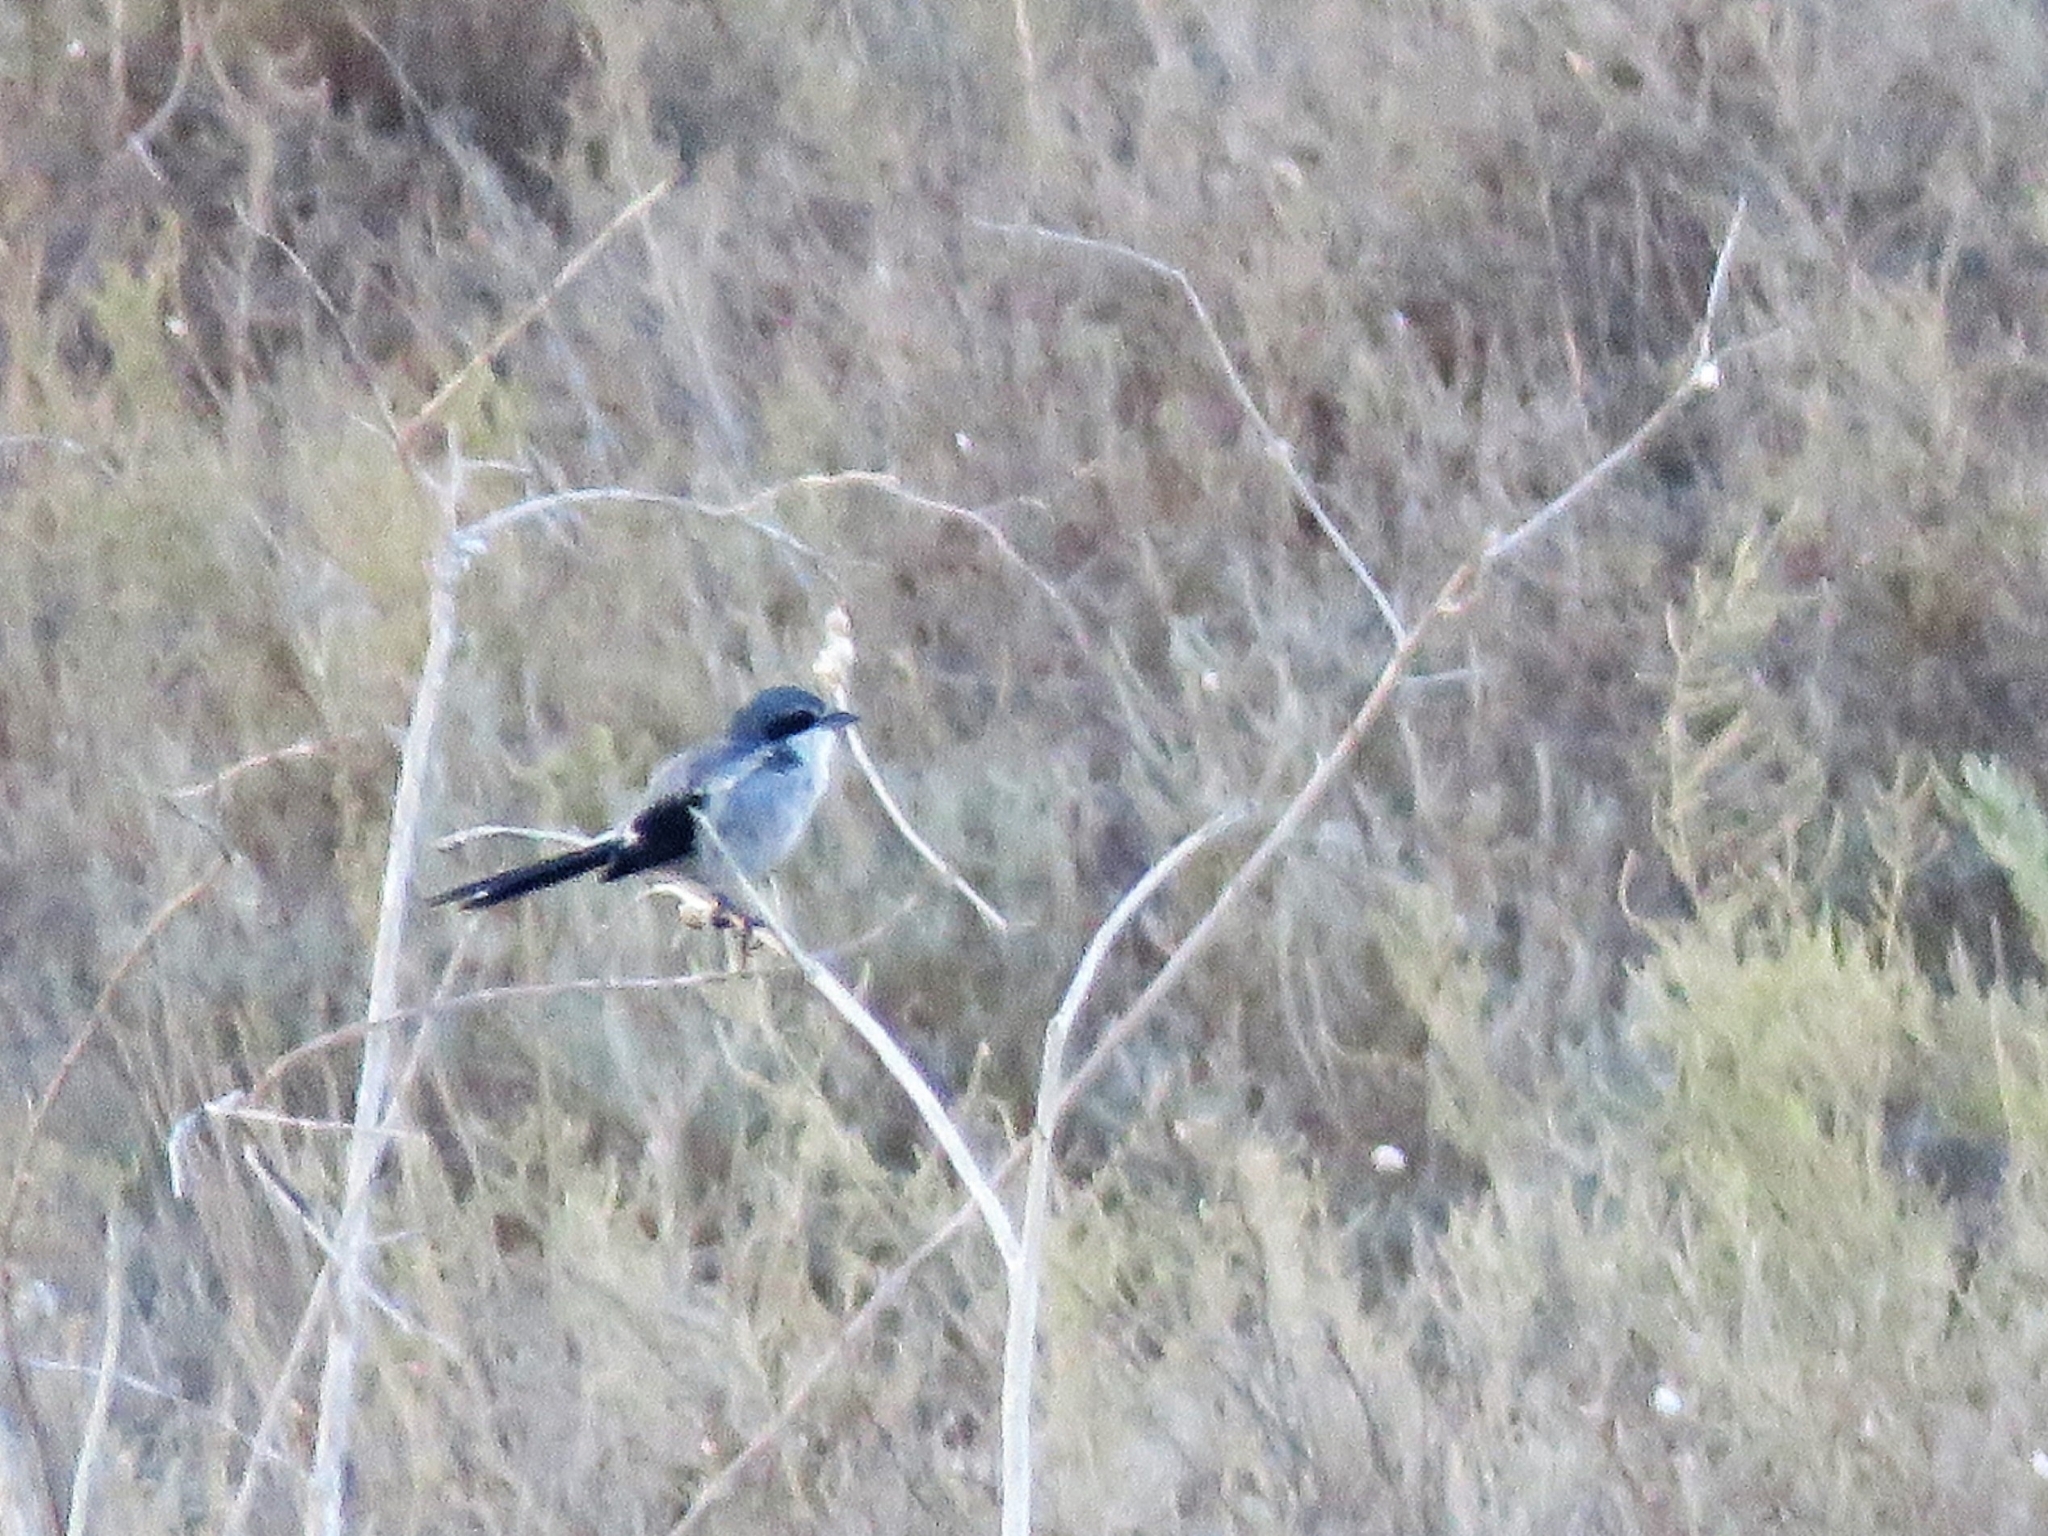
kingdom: Animalia
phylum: Chordata
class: Aves
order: Passeriformes
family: Laniidae
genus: Lanius
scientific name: Lanius meridionalis
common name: Iberian grey shrike
